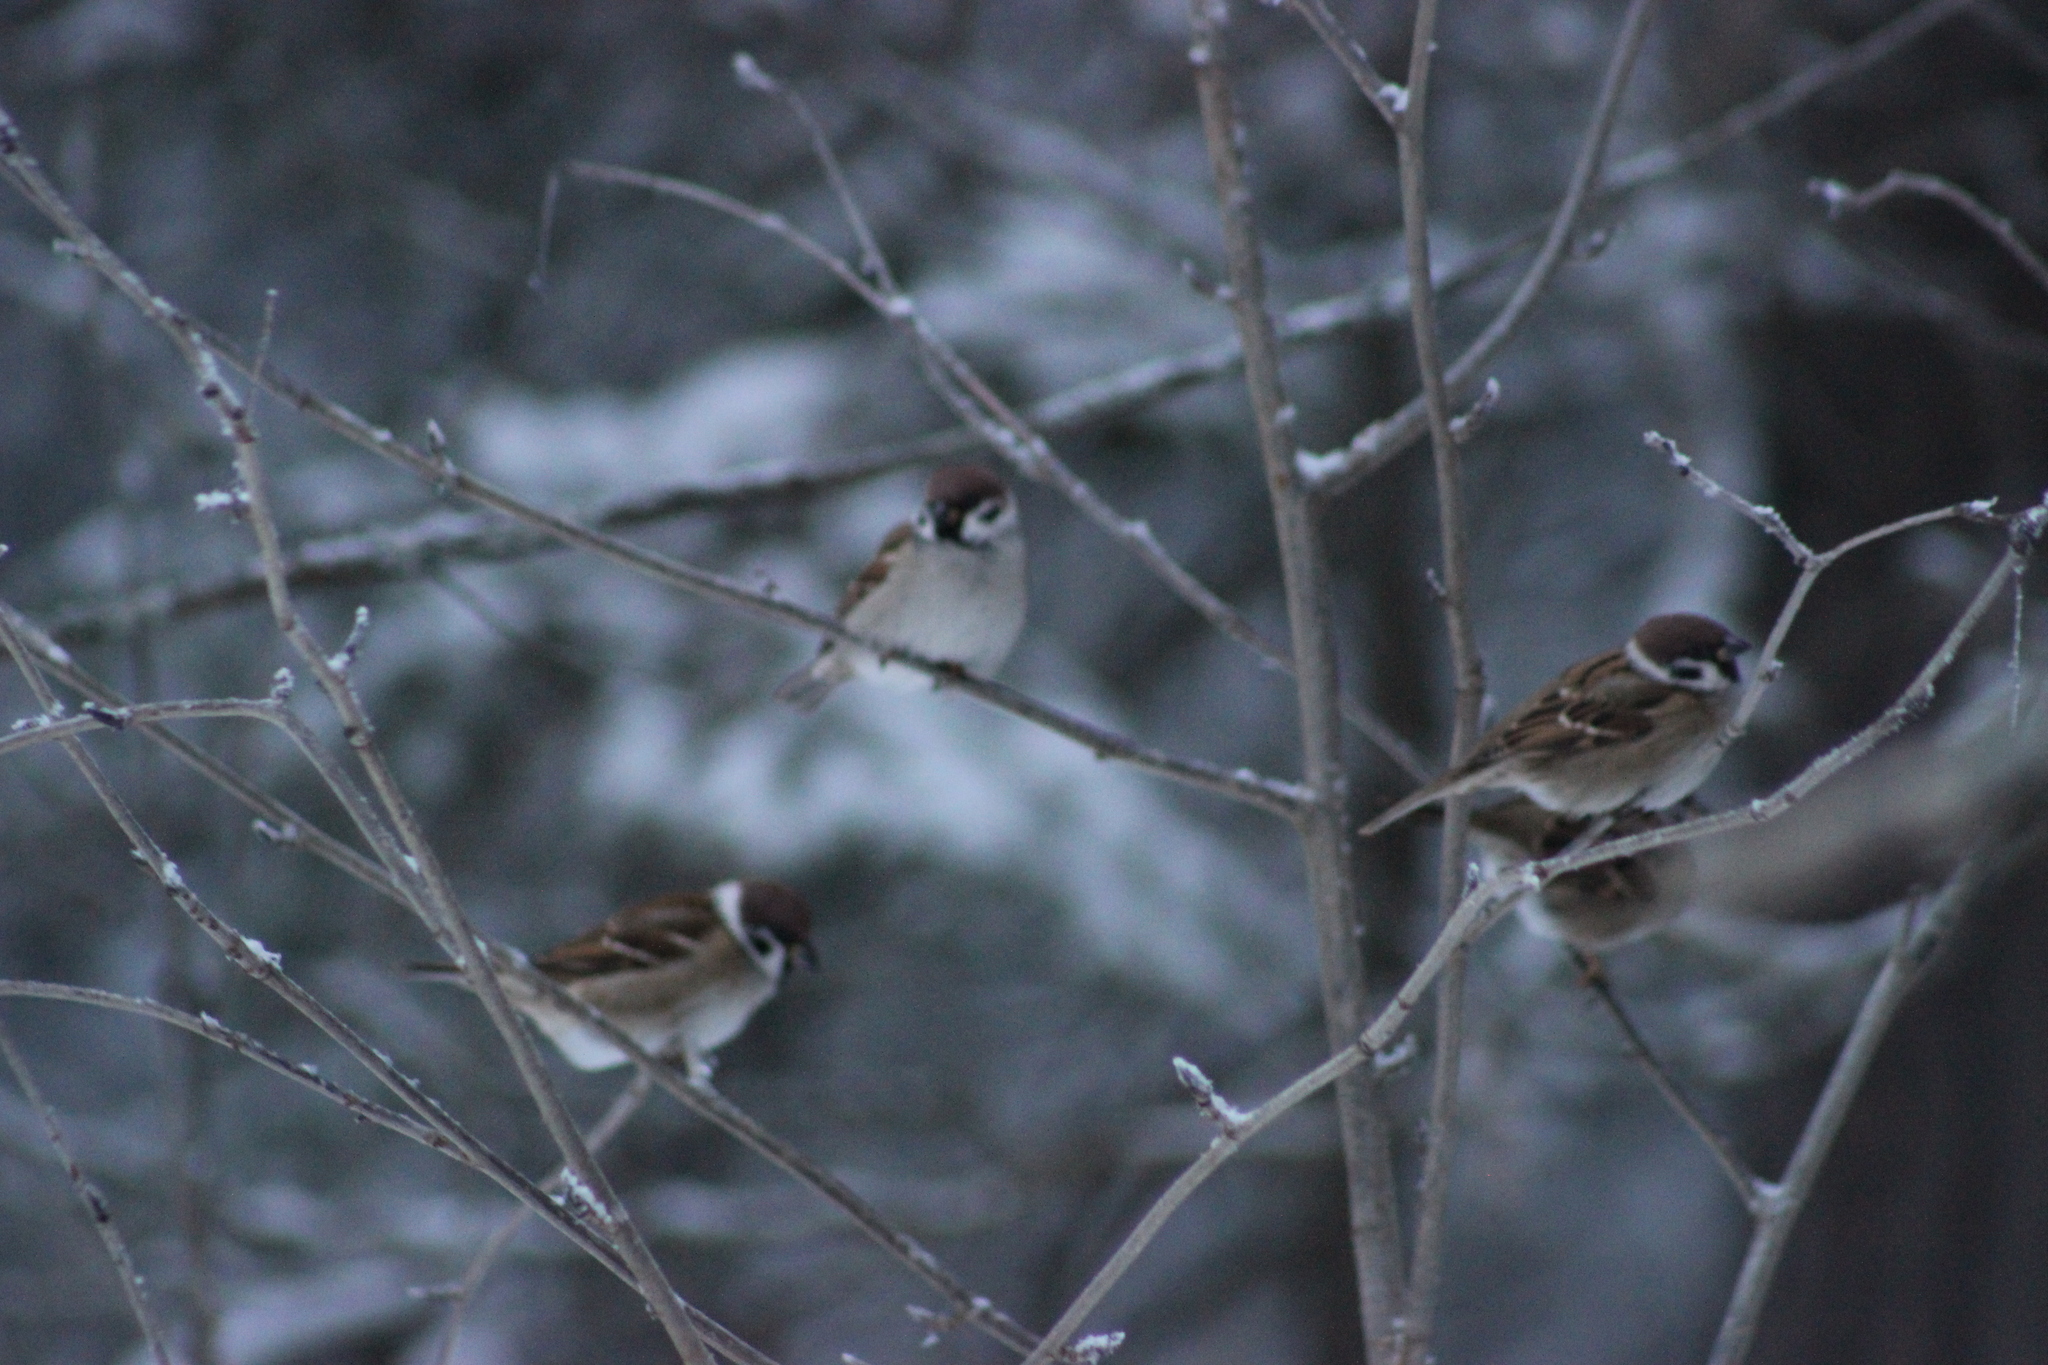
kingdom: Animalia
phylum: Chordata
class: Aves
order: Passeriformes
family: Passeridae
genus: Passer
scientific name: Passer montanus
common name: Eurasian tree sparrow
